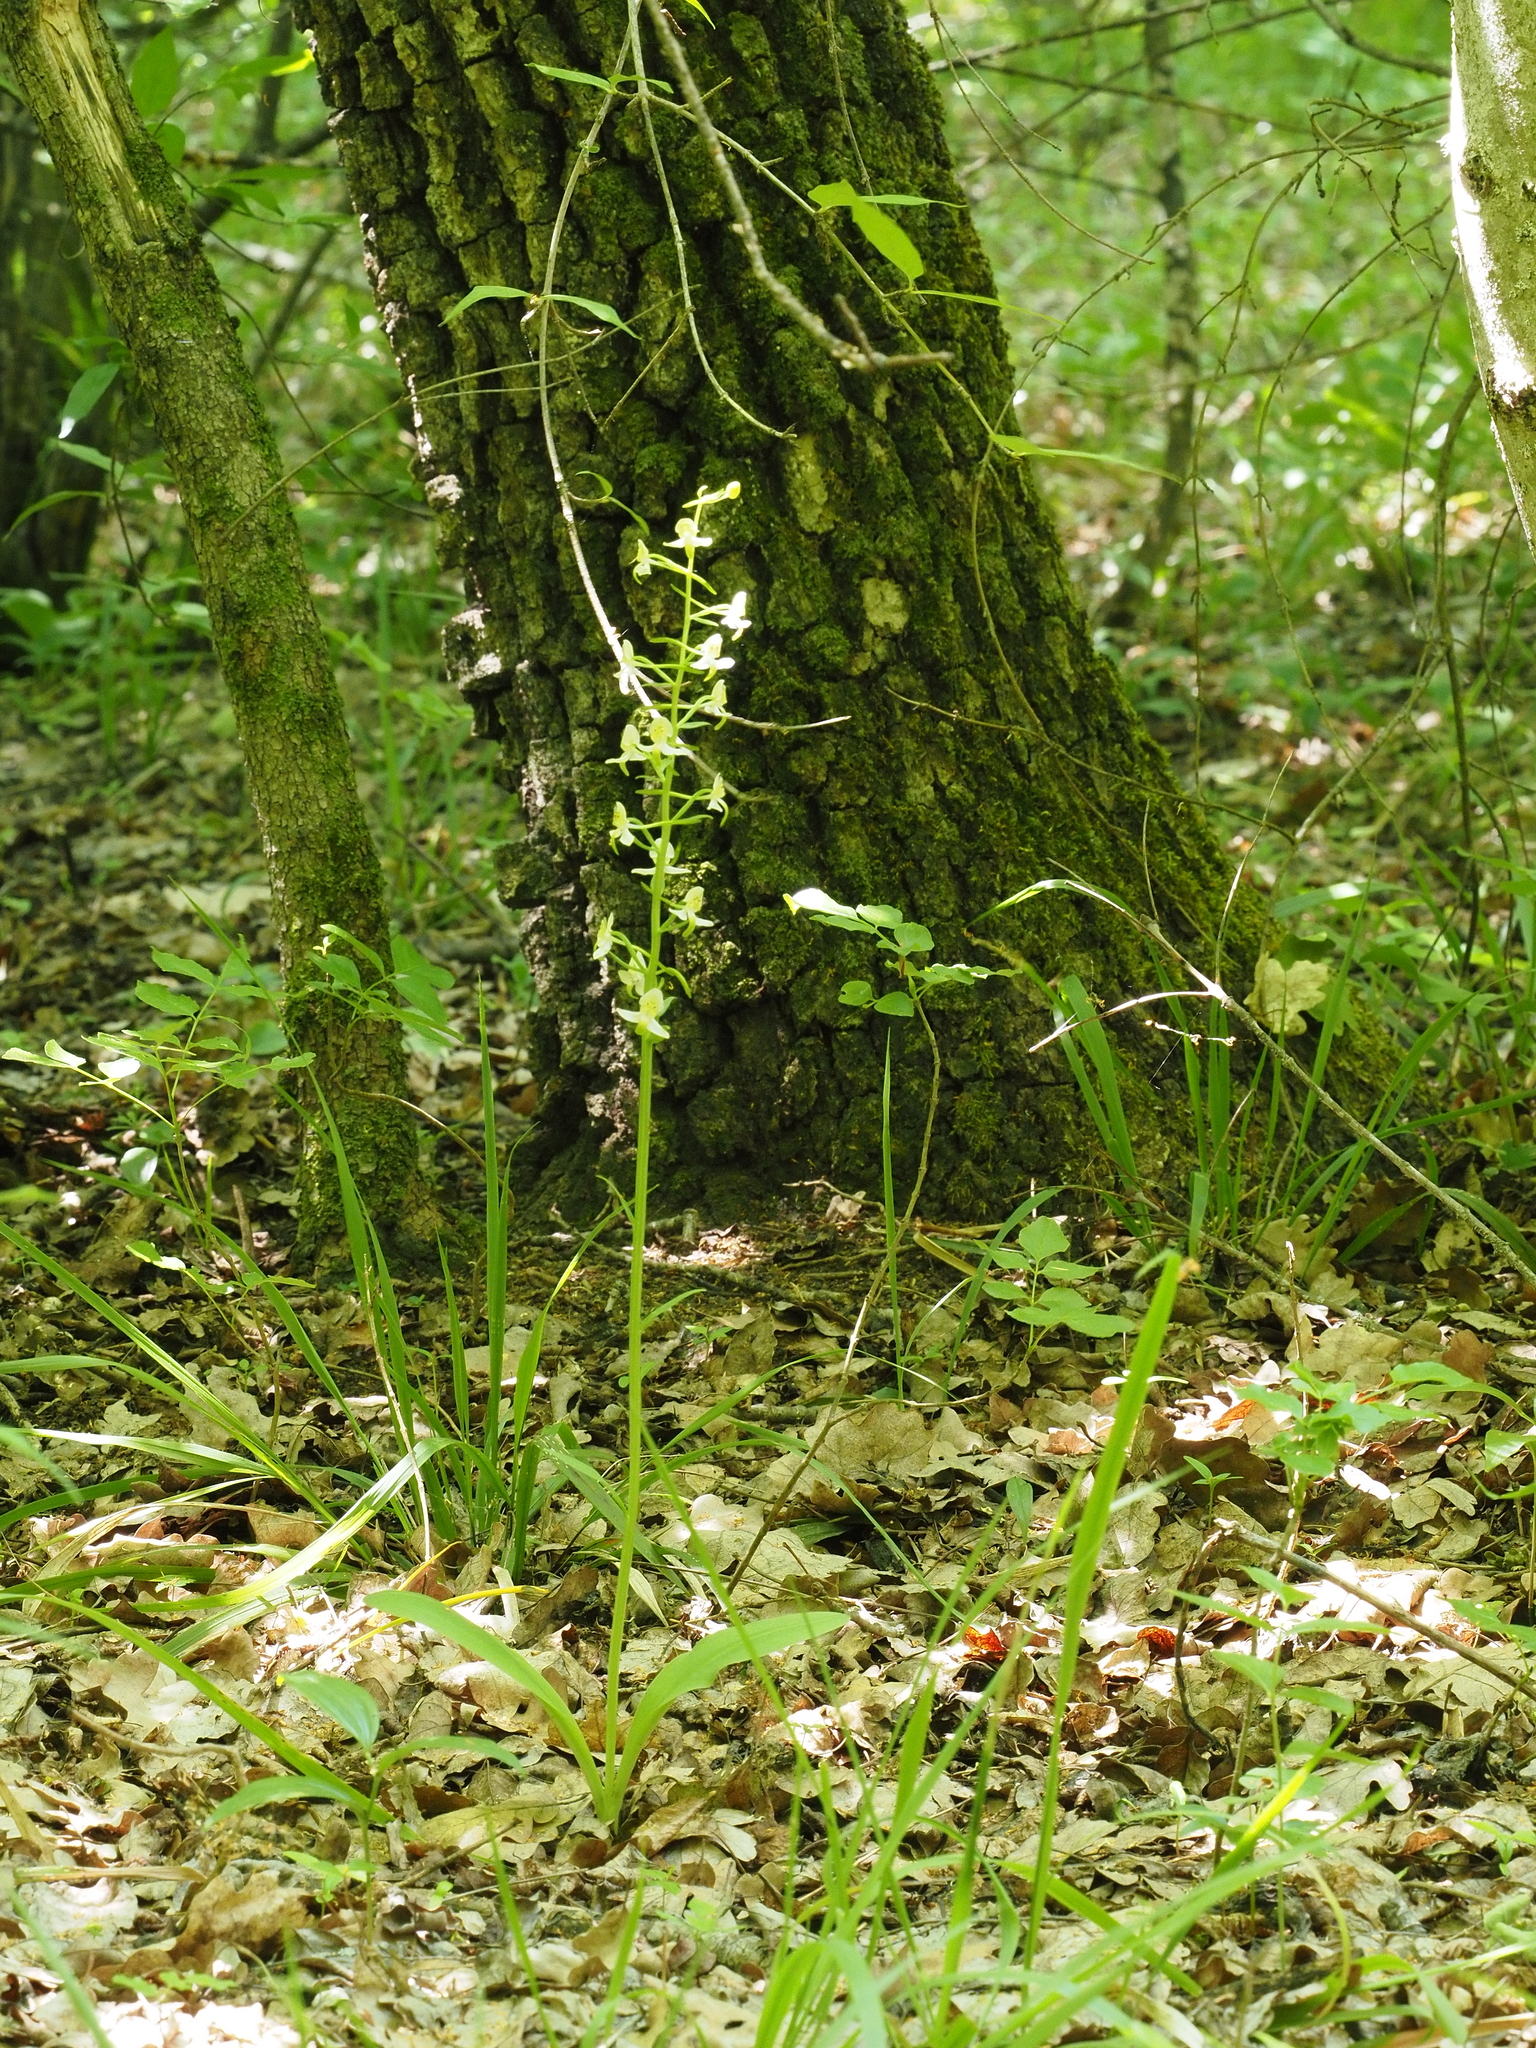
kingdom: Plantae
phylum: Tracheophyta
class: Liliopsida
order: Asparagales
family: Orchidaceae
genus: Platanthera
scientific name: Platanthera chlorantha
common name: Greater butterfly-orchid
